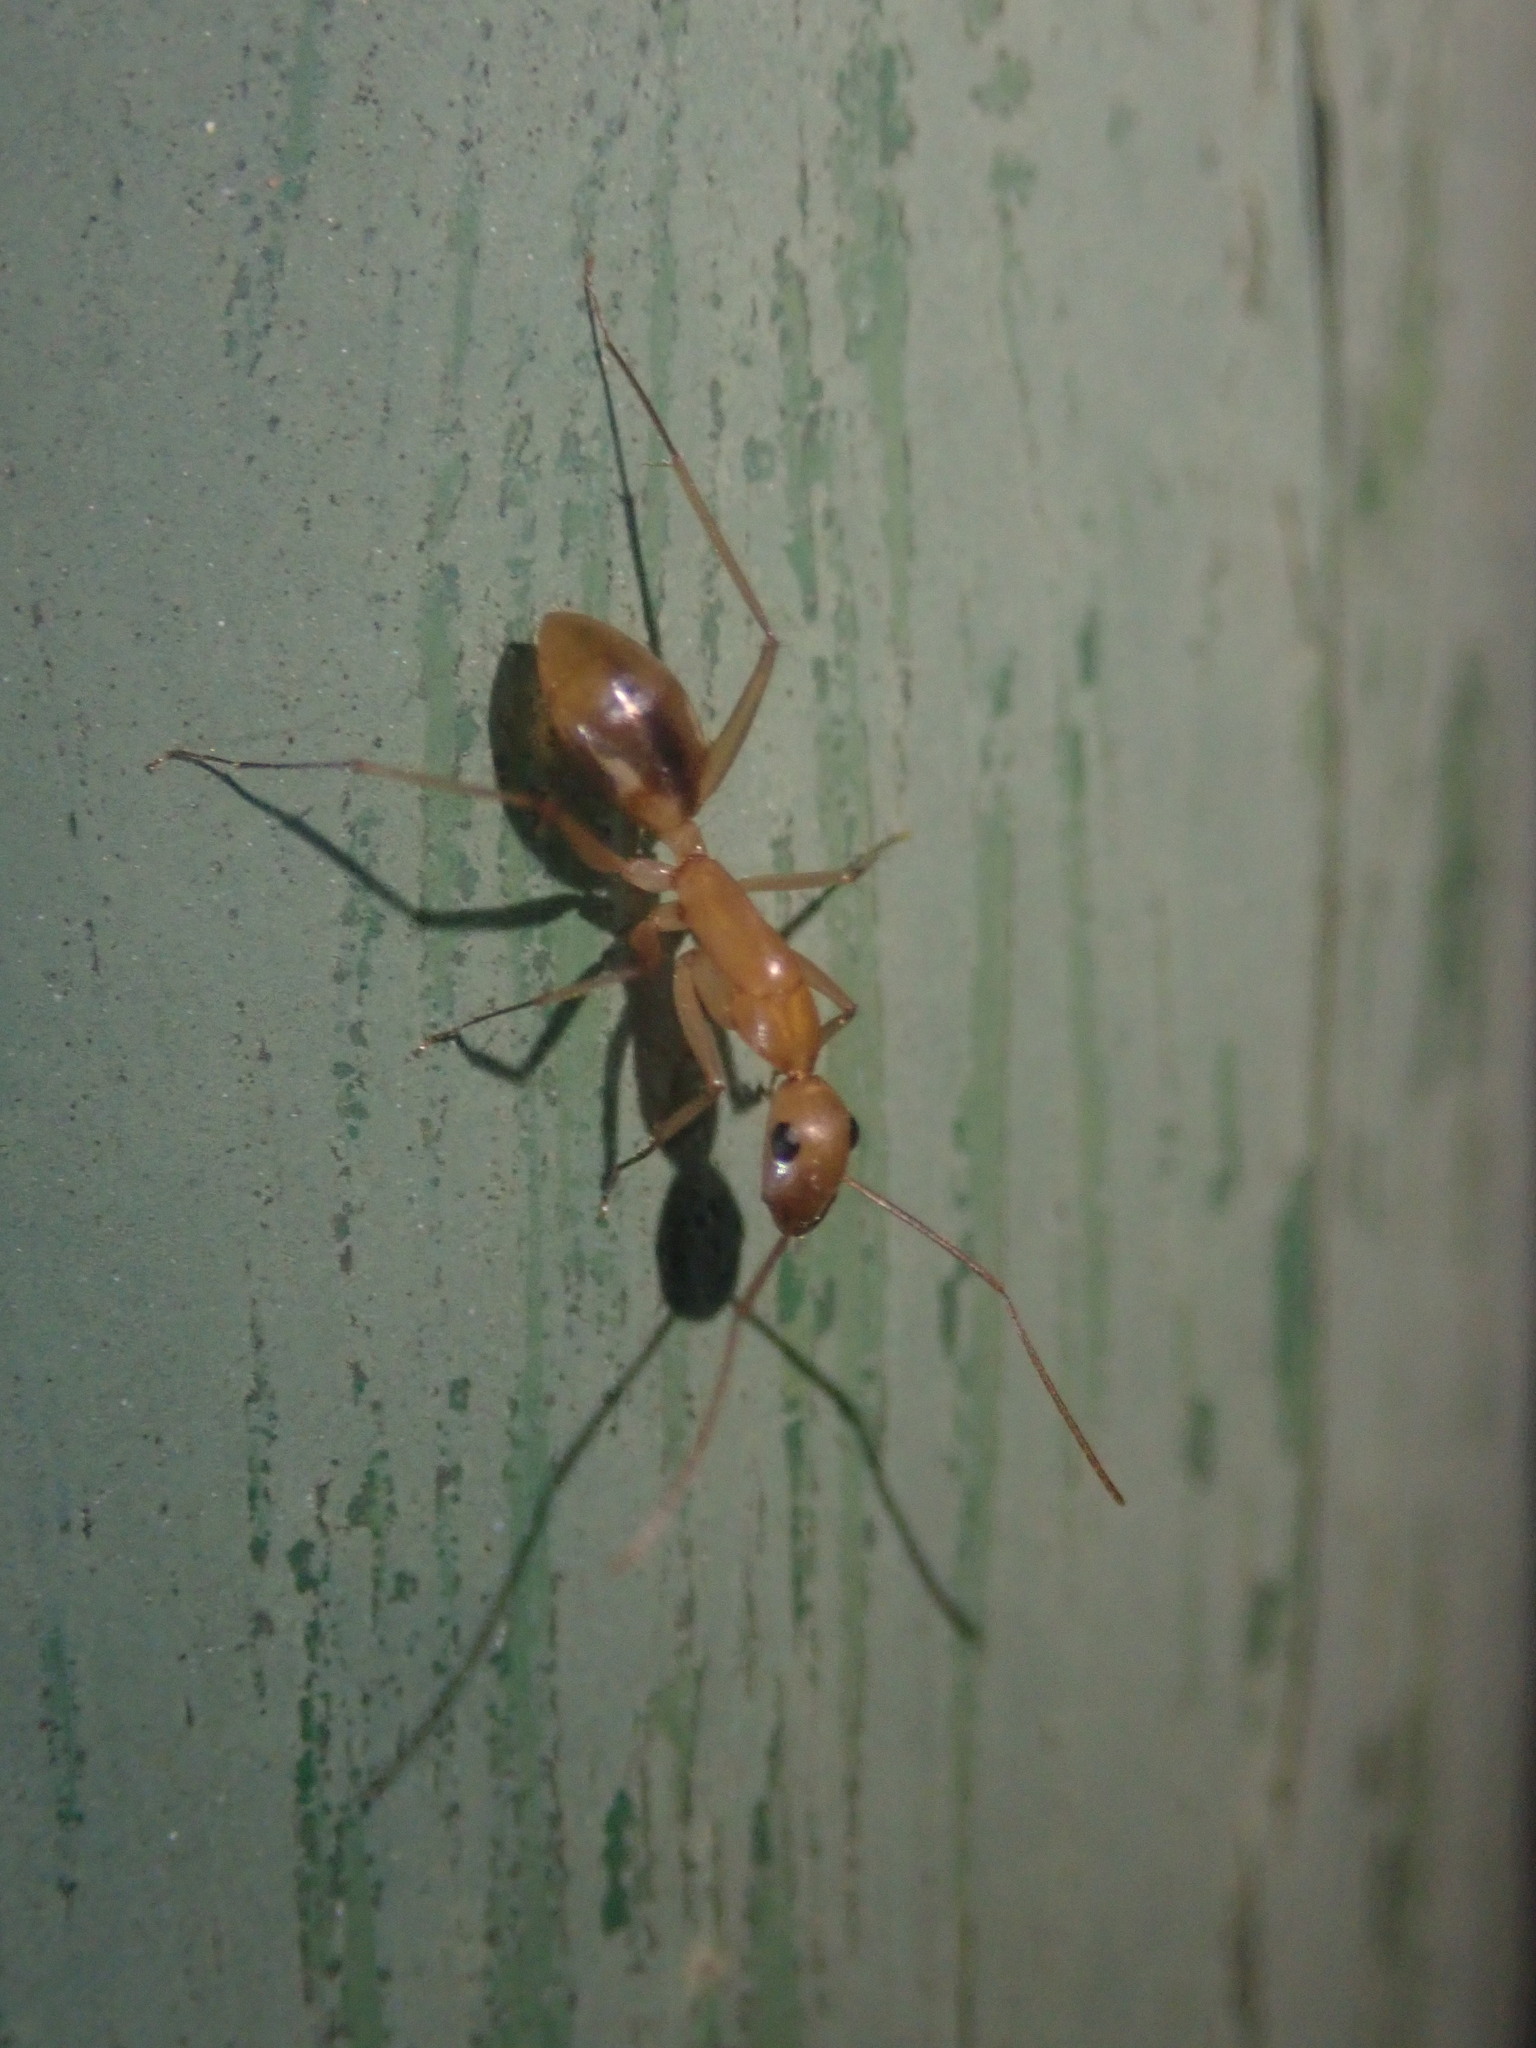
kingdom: Animalia
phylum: Arthropoda
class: Insecta
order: Hymenoptera
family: Formicidae
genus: Camponotus
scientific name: Camponotus maculatus
